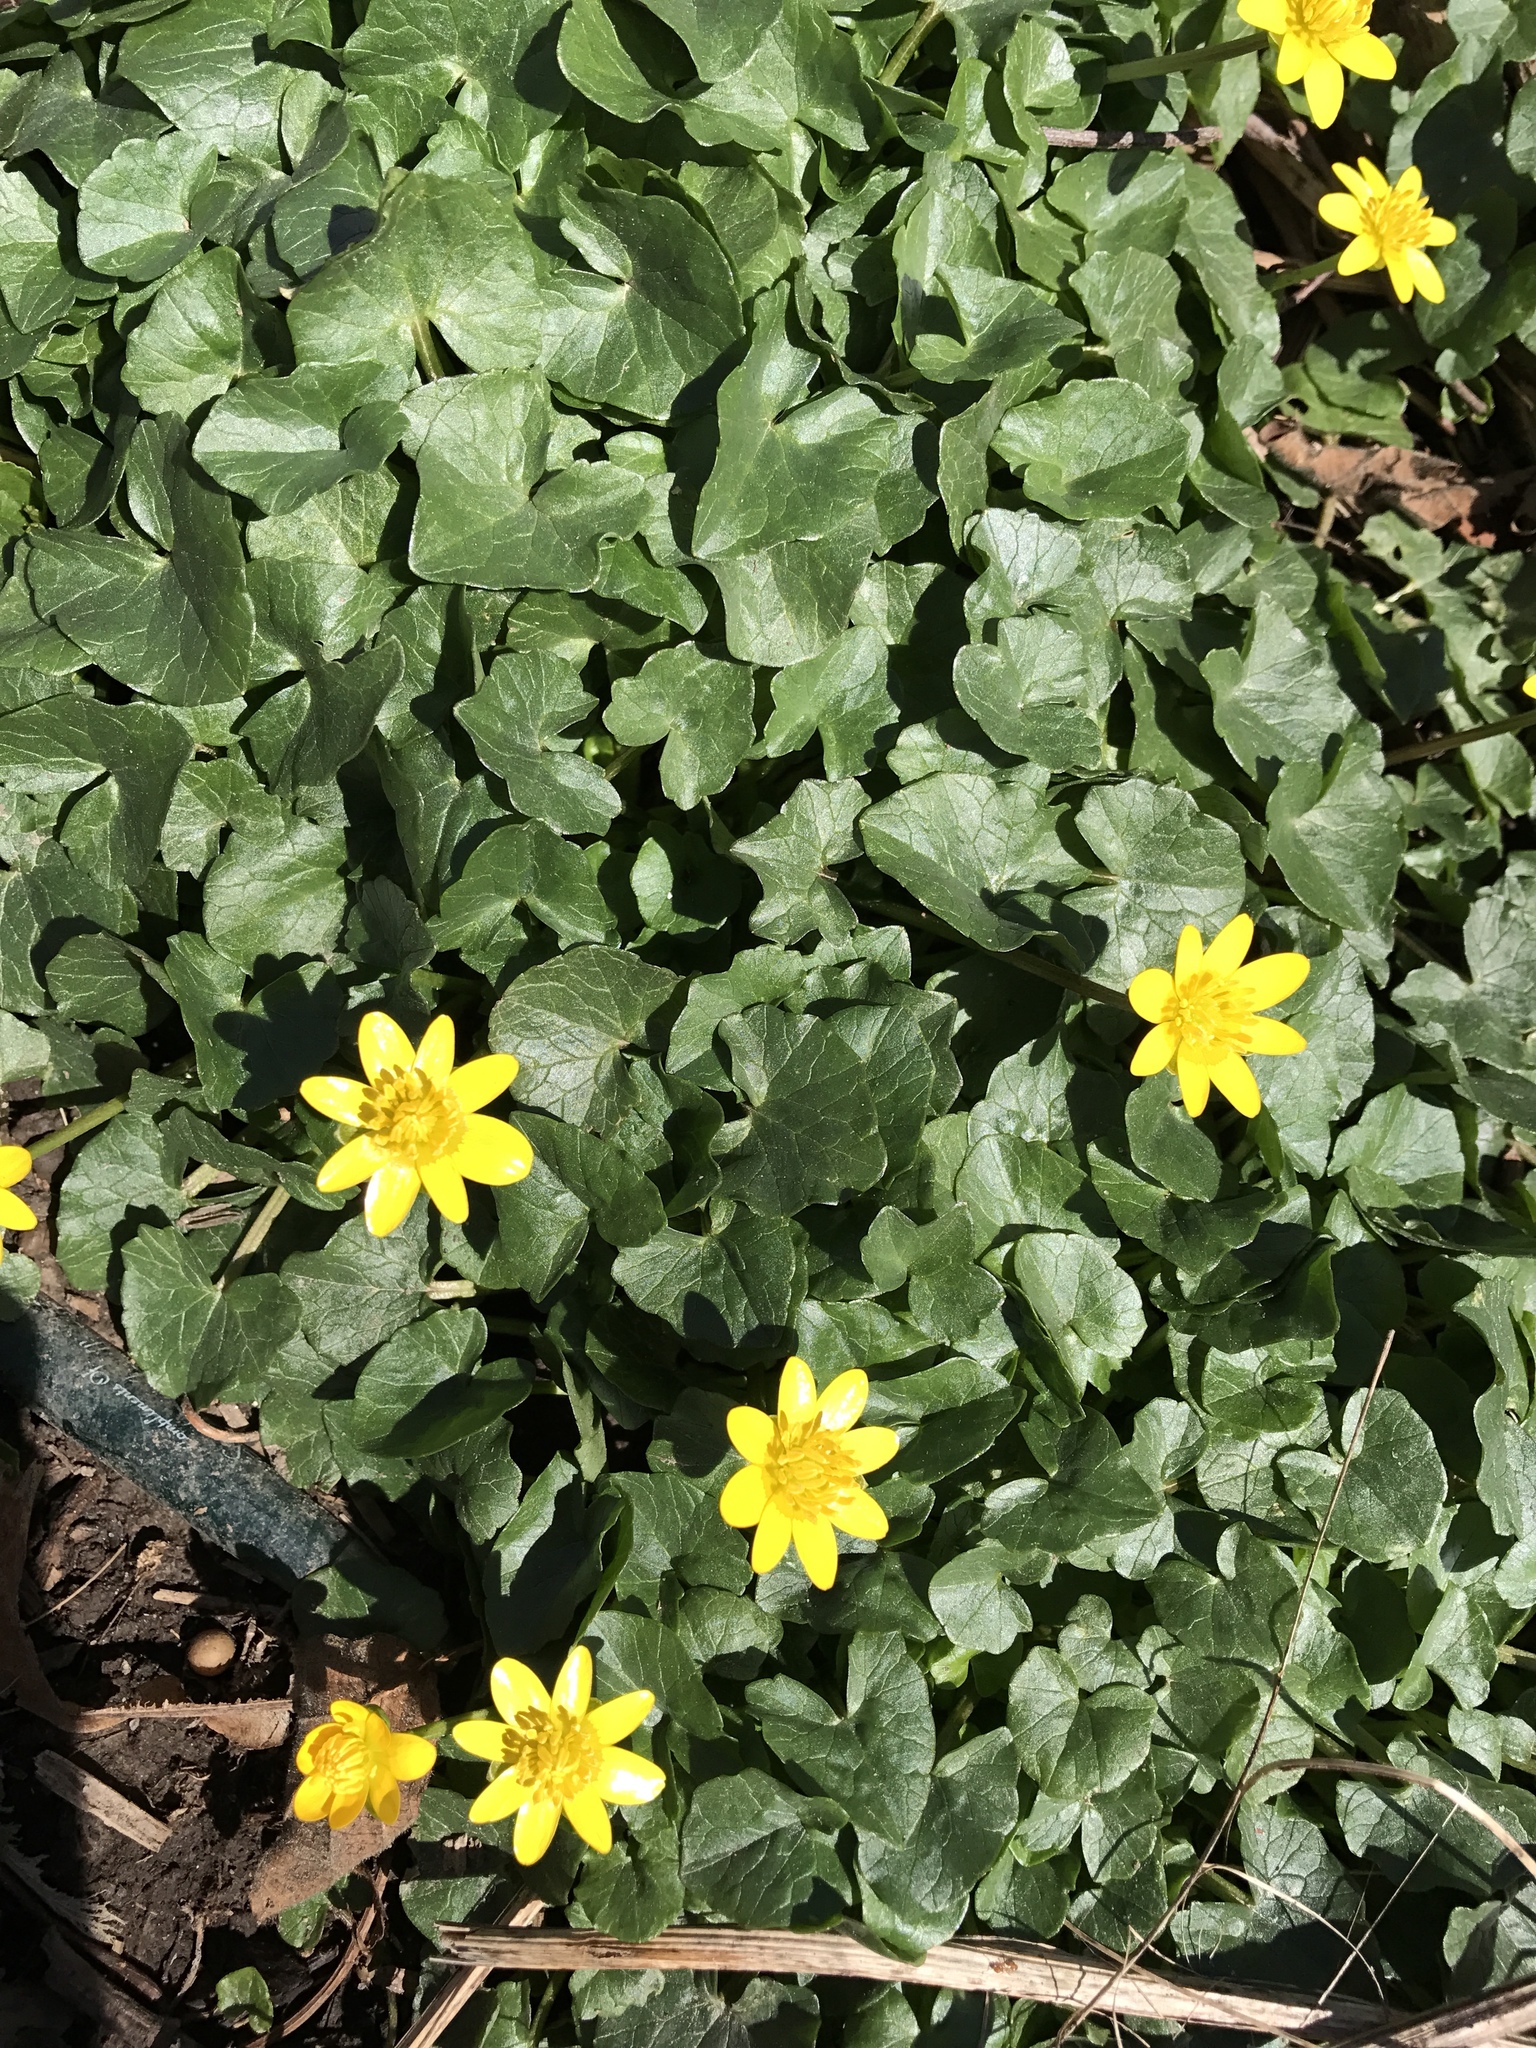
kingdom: Plantae
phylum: Tracheophyta
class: Magnoliopsida
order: Ranunculales
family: Ranunculaceae
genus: Ficaria
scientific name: Ficaria verna
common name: Lesser celandine
